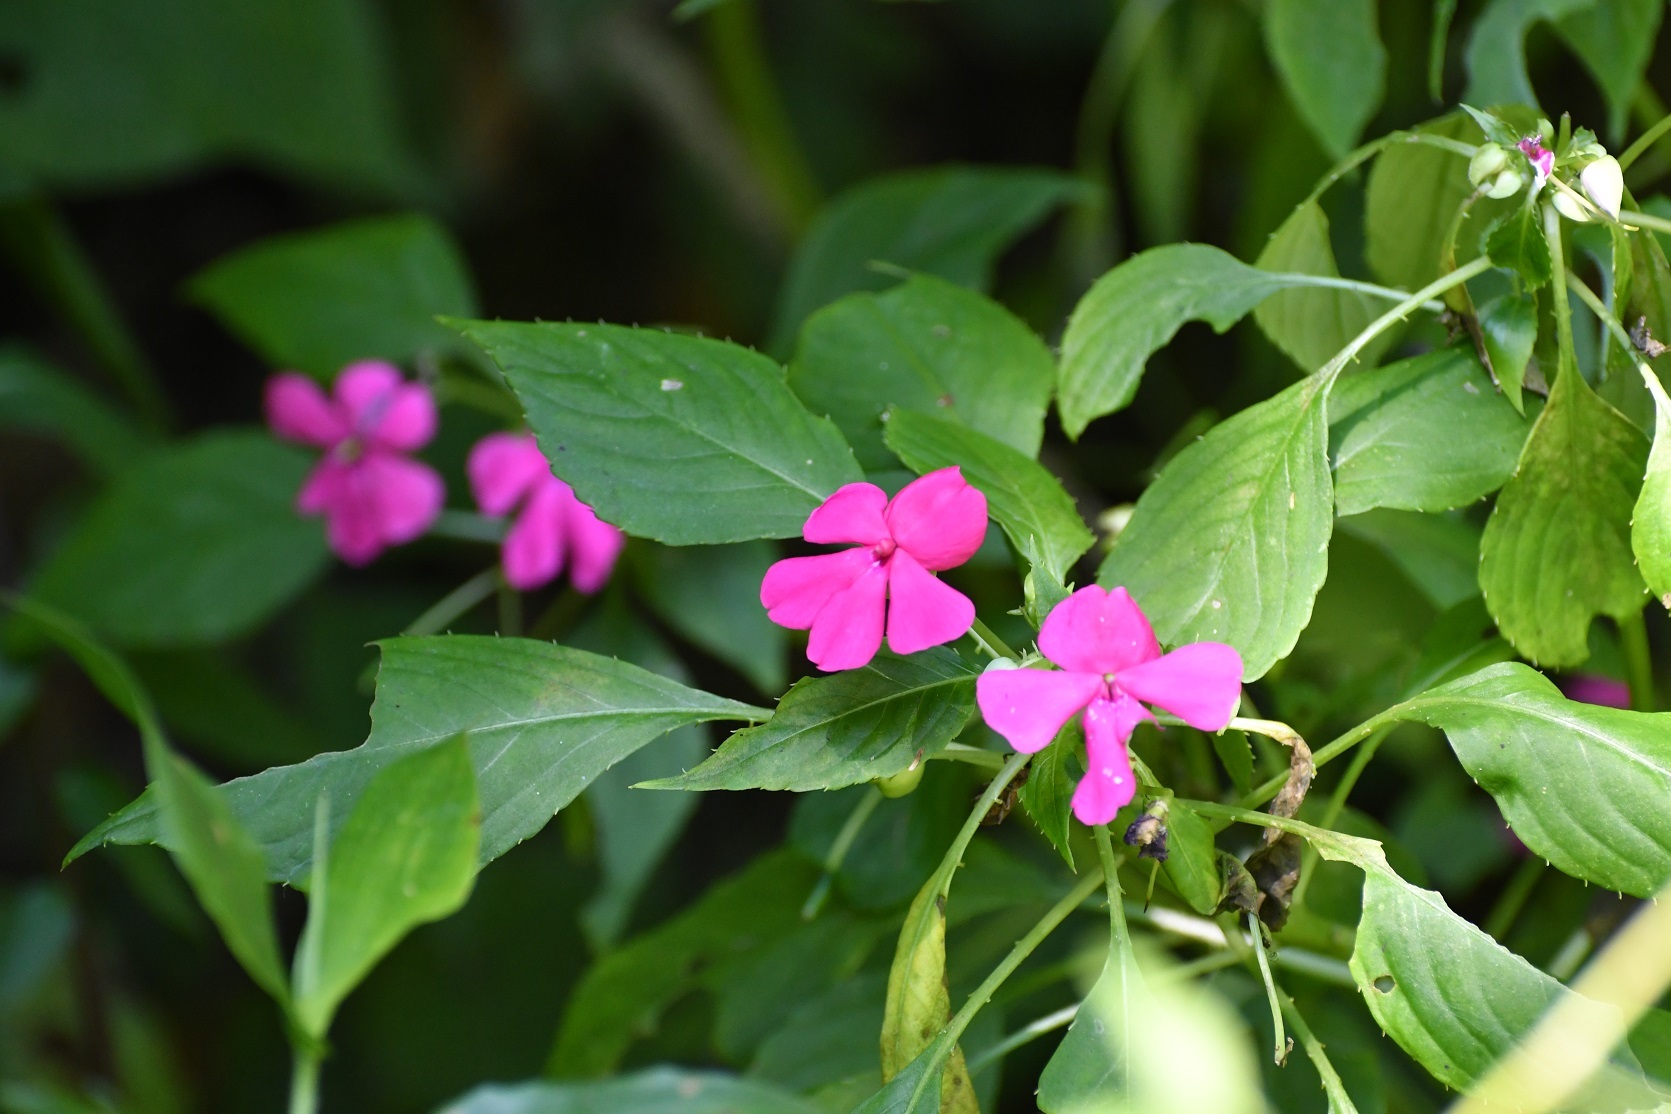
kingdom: Plantae
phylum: Tracheophyta
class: Magnoliopsida
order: Ericales
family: Balsaminaceae
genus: Impatiens
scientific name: Impatiens walleriana
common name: Buzzy lizzy
